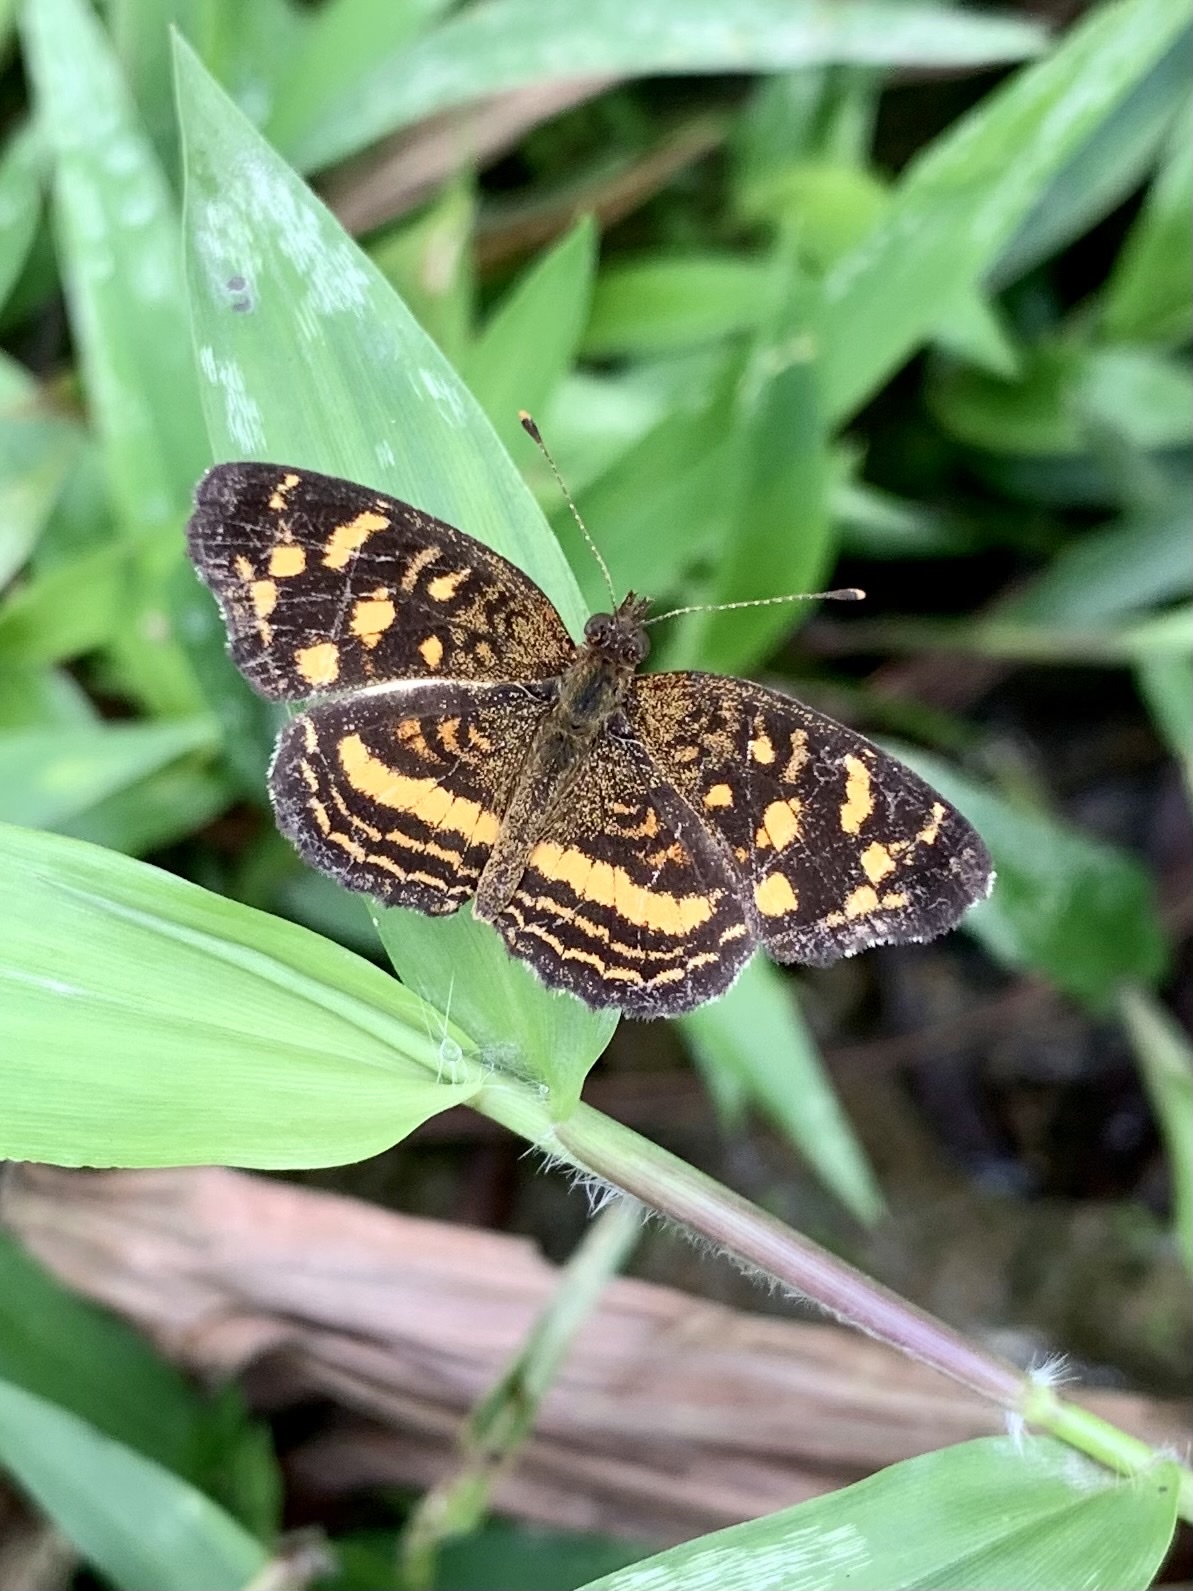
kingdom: Animalia
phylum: Arthropoda
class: Insecta
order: Lepidoptera
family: Nymphalidae
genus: Anthanassa
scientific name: Anthanassa drusilla
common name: Orange-patched crescent
